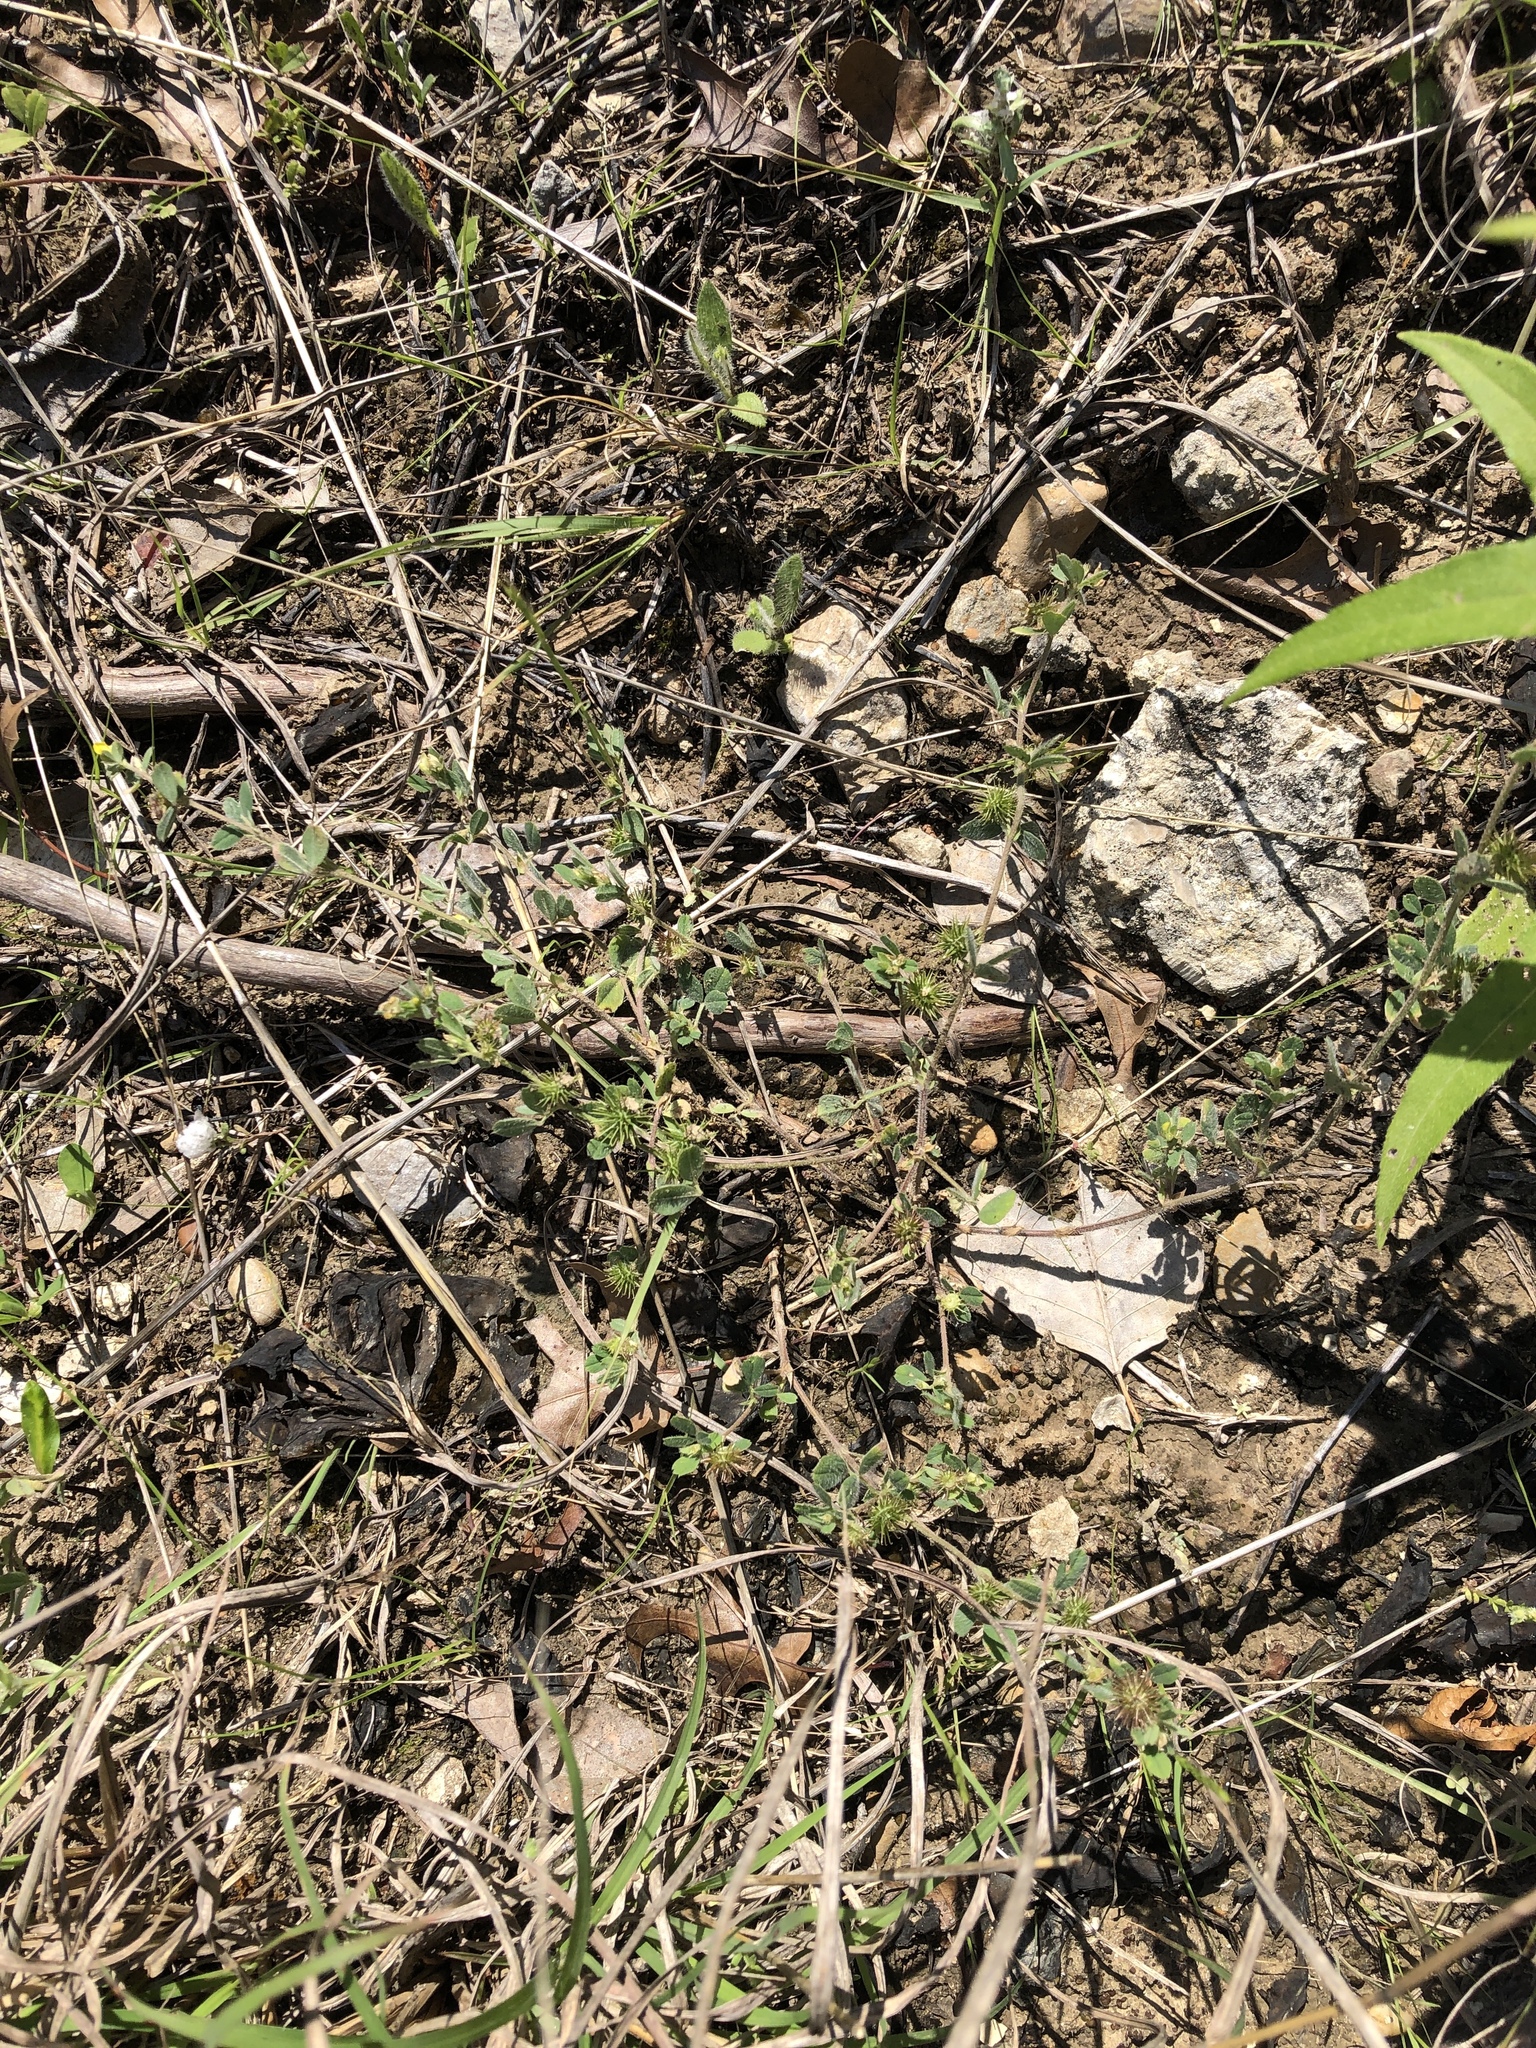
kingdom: Plantae
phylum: Tracheophyta
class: Magnoliopsida
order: Fabales
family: Fabaceae
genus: Medicago
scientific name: Medicago minima
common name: Little bur-clover
